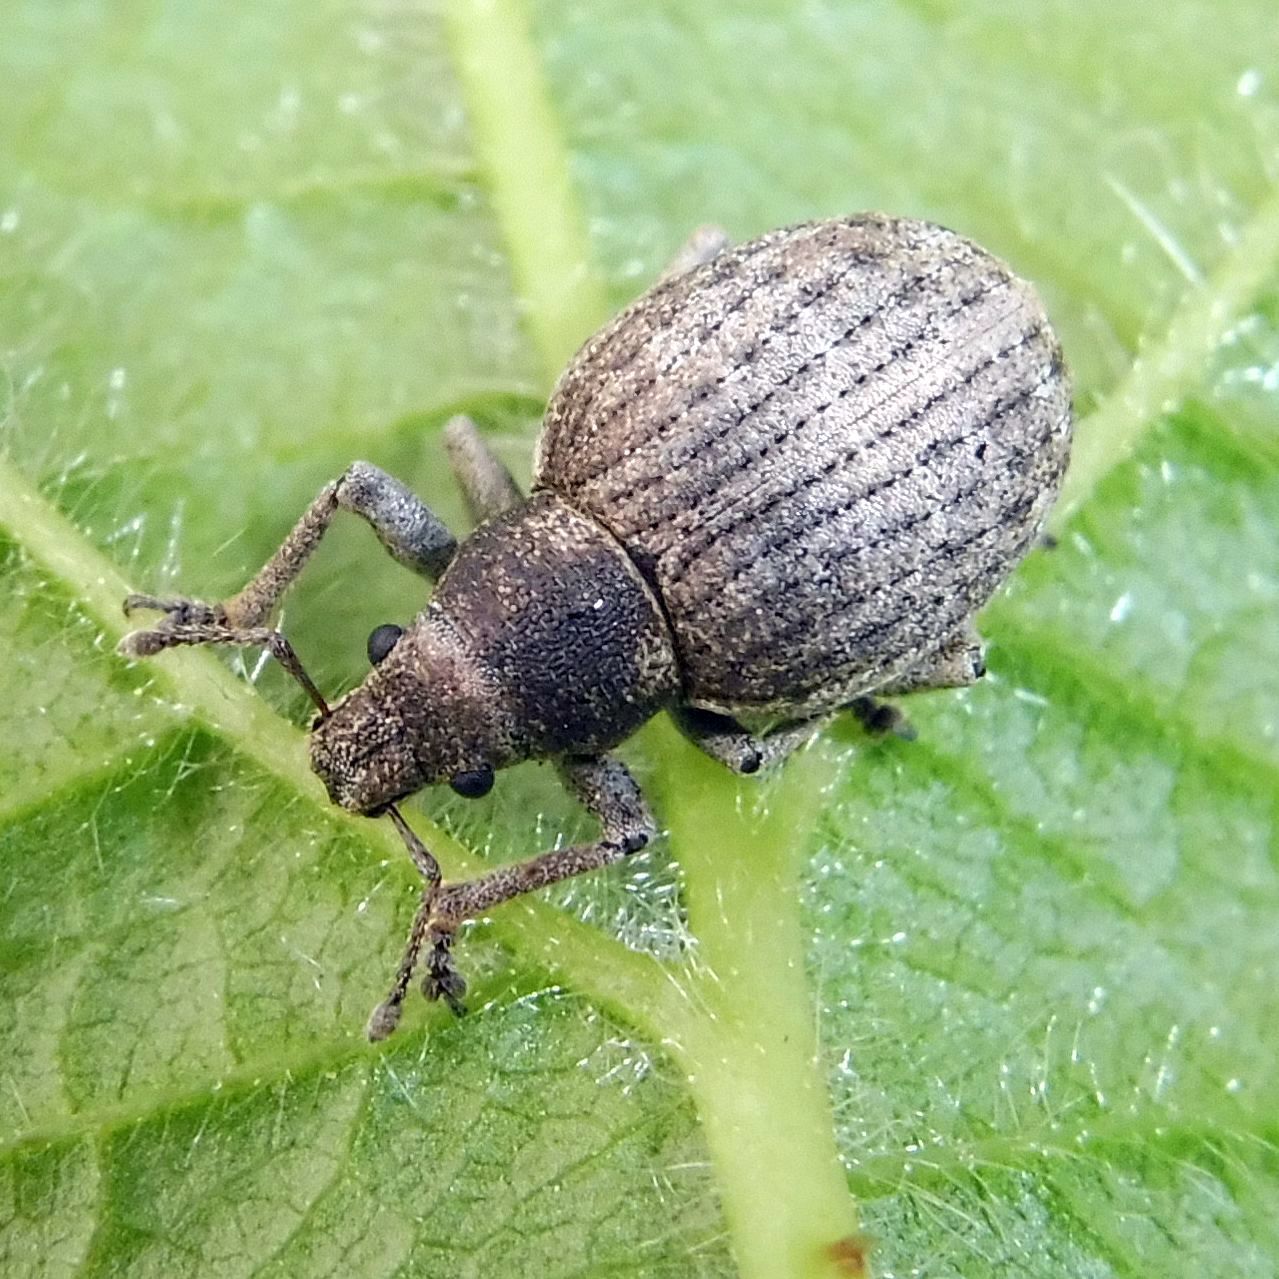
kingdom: Animalia
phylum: Arthropoda
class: Insecta
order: Coleoptera
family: Curculionidae
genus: Attactagenus
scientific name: Attactagenus plumbeus
